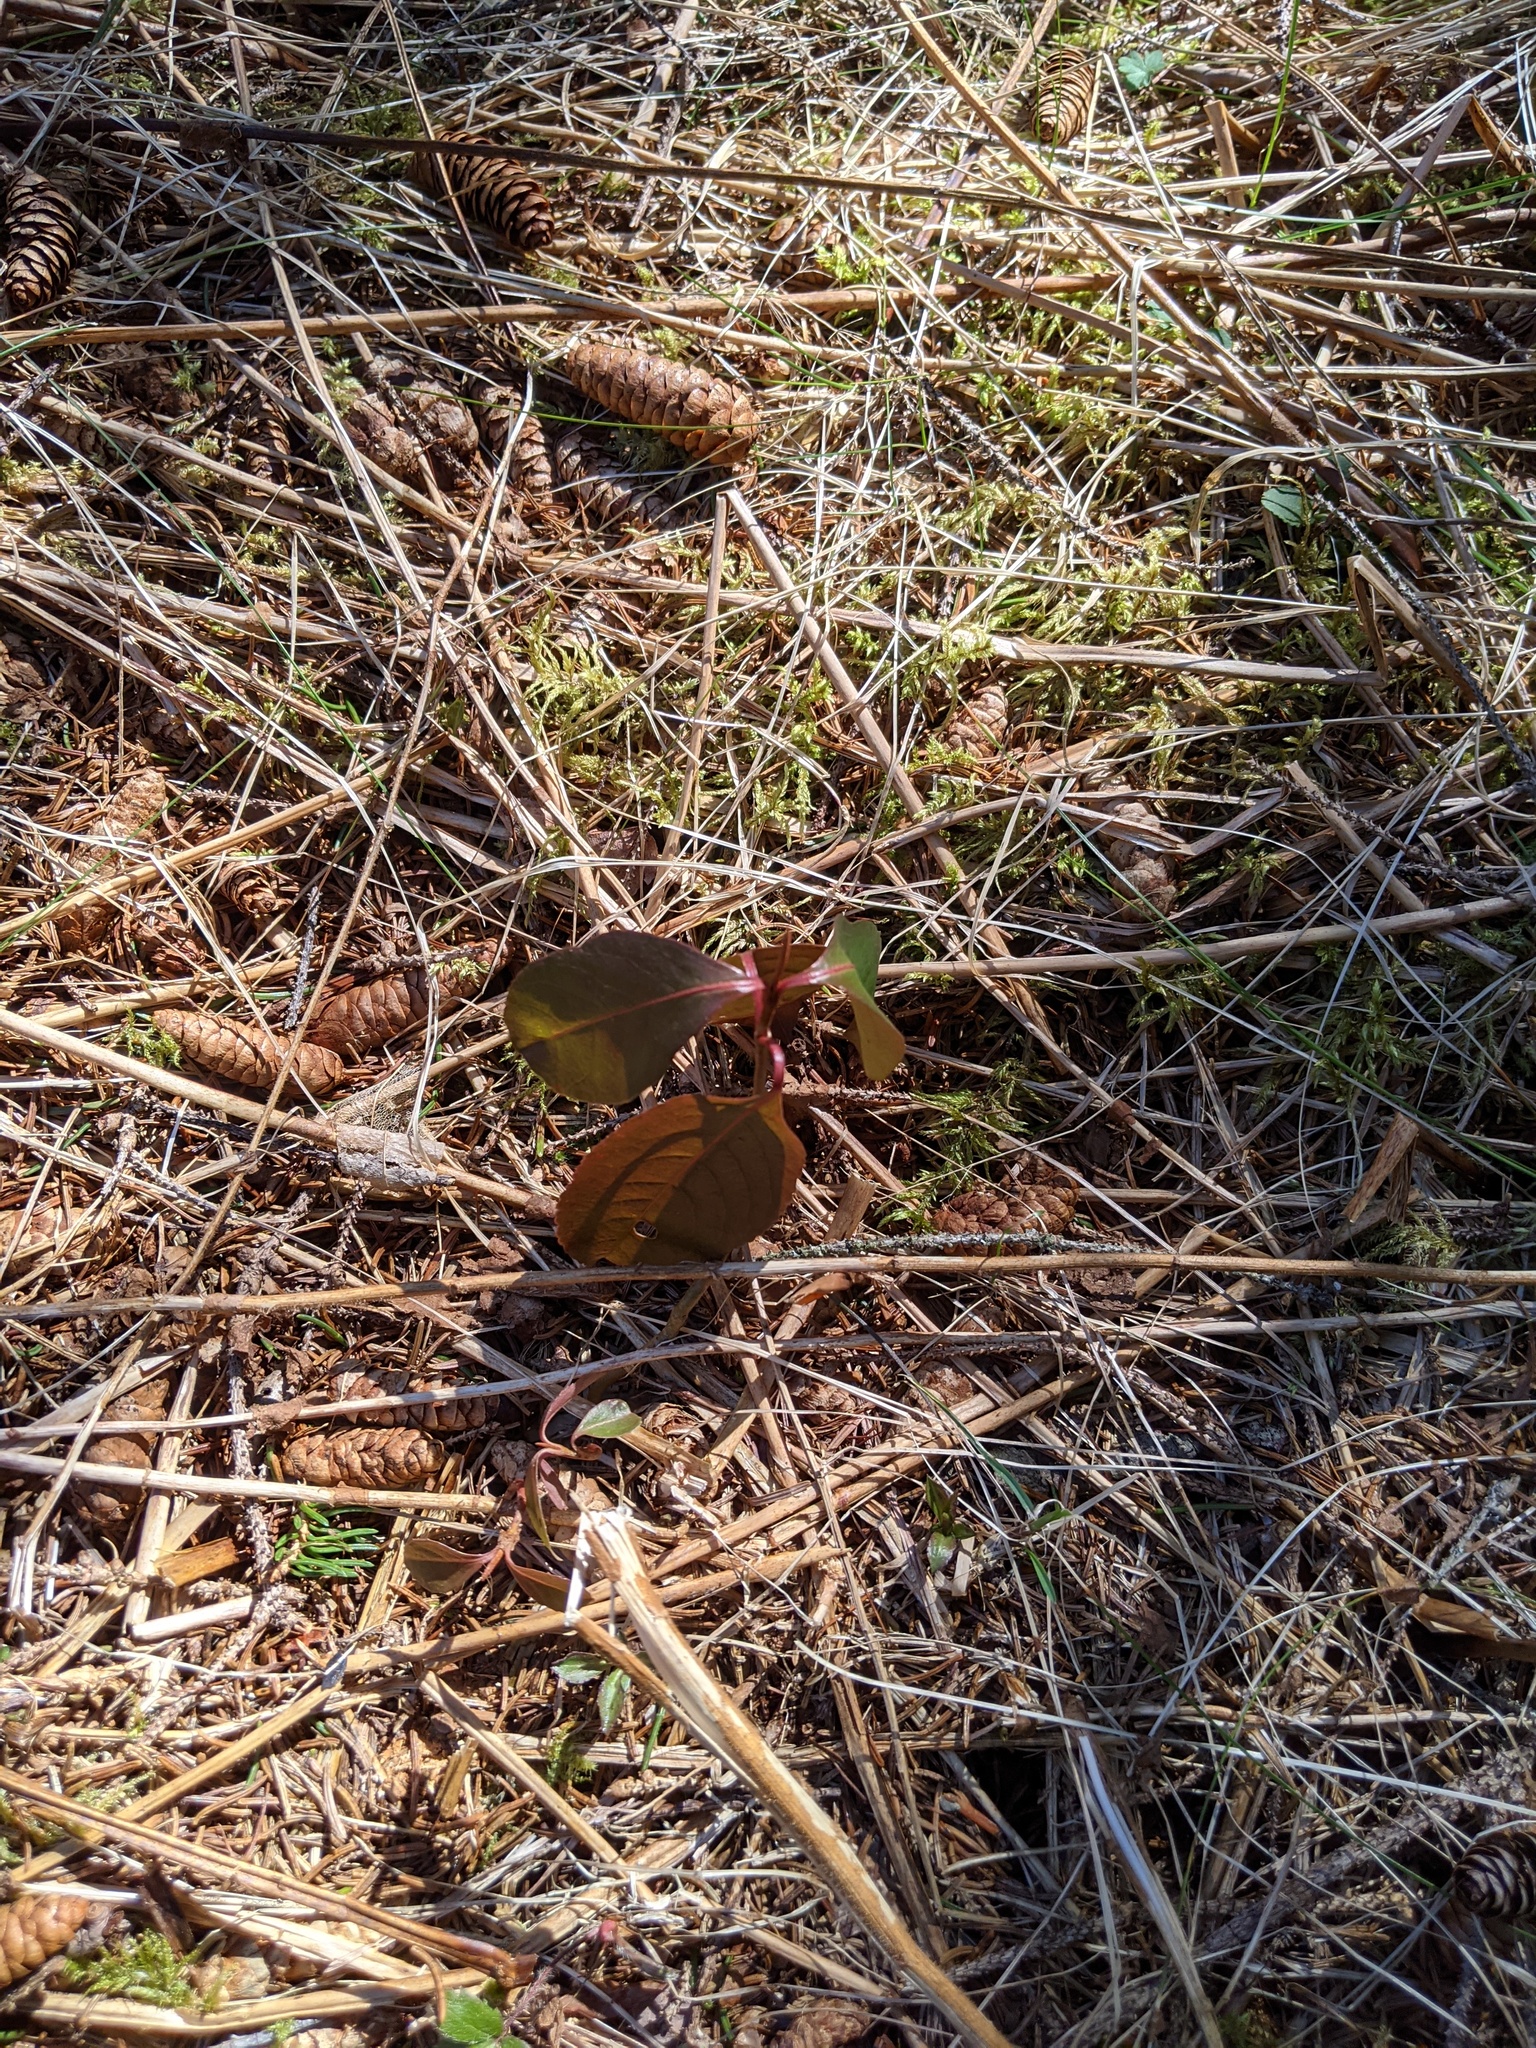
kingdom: Plantae
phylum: Tracheophyta
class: Magnoliopsida
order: Dipsacales
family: Viburnaceae
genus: Viburnum
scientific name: Viburnum cassinoides
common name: Swamp haw
